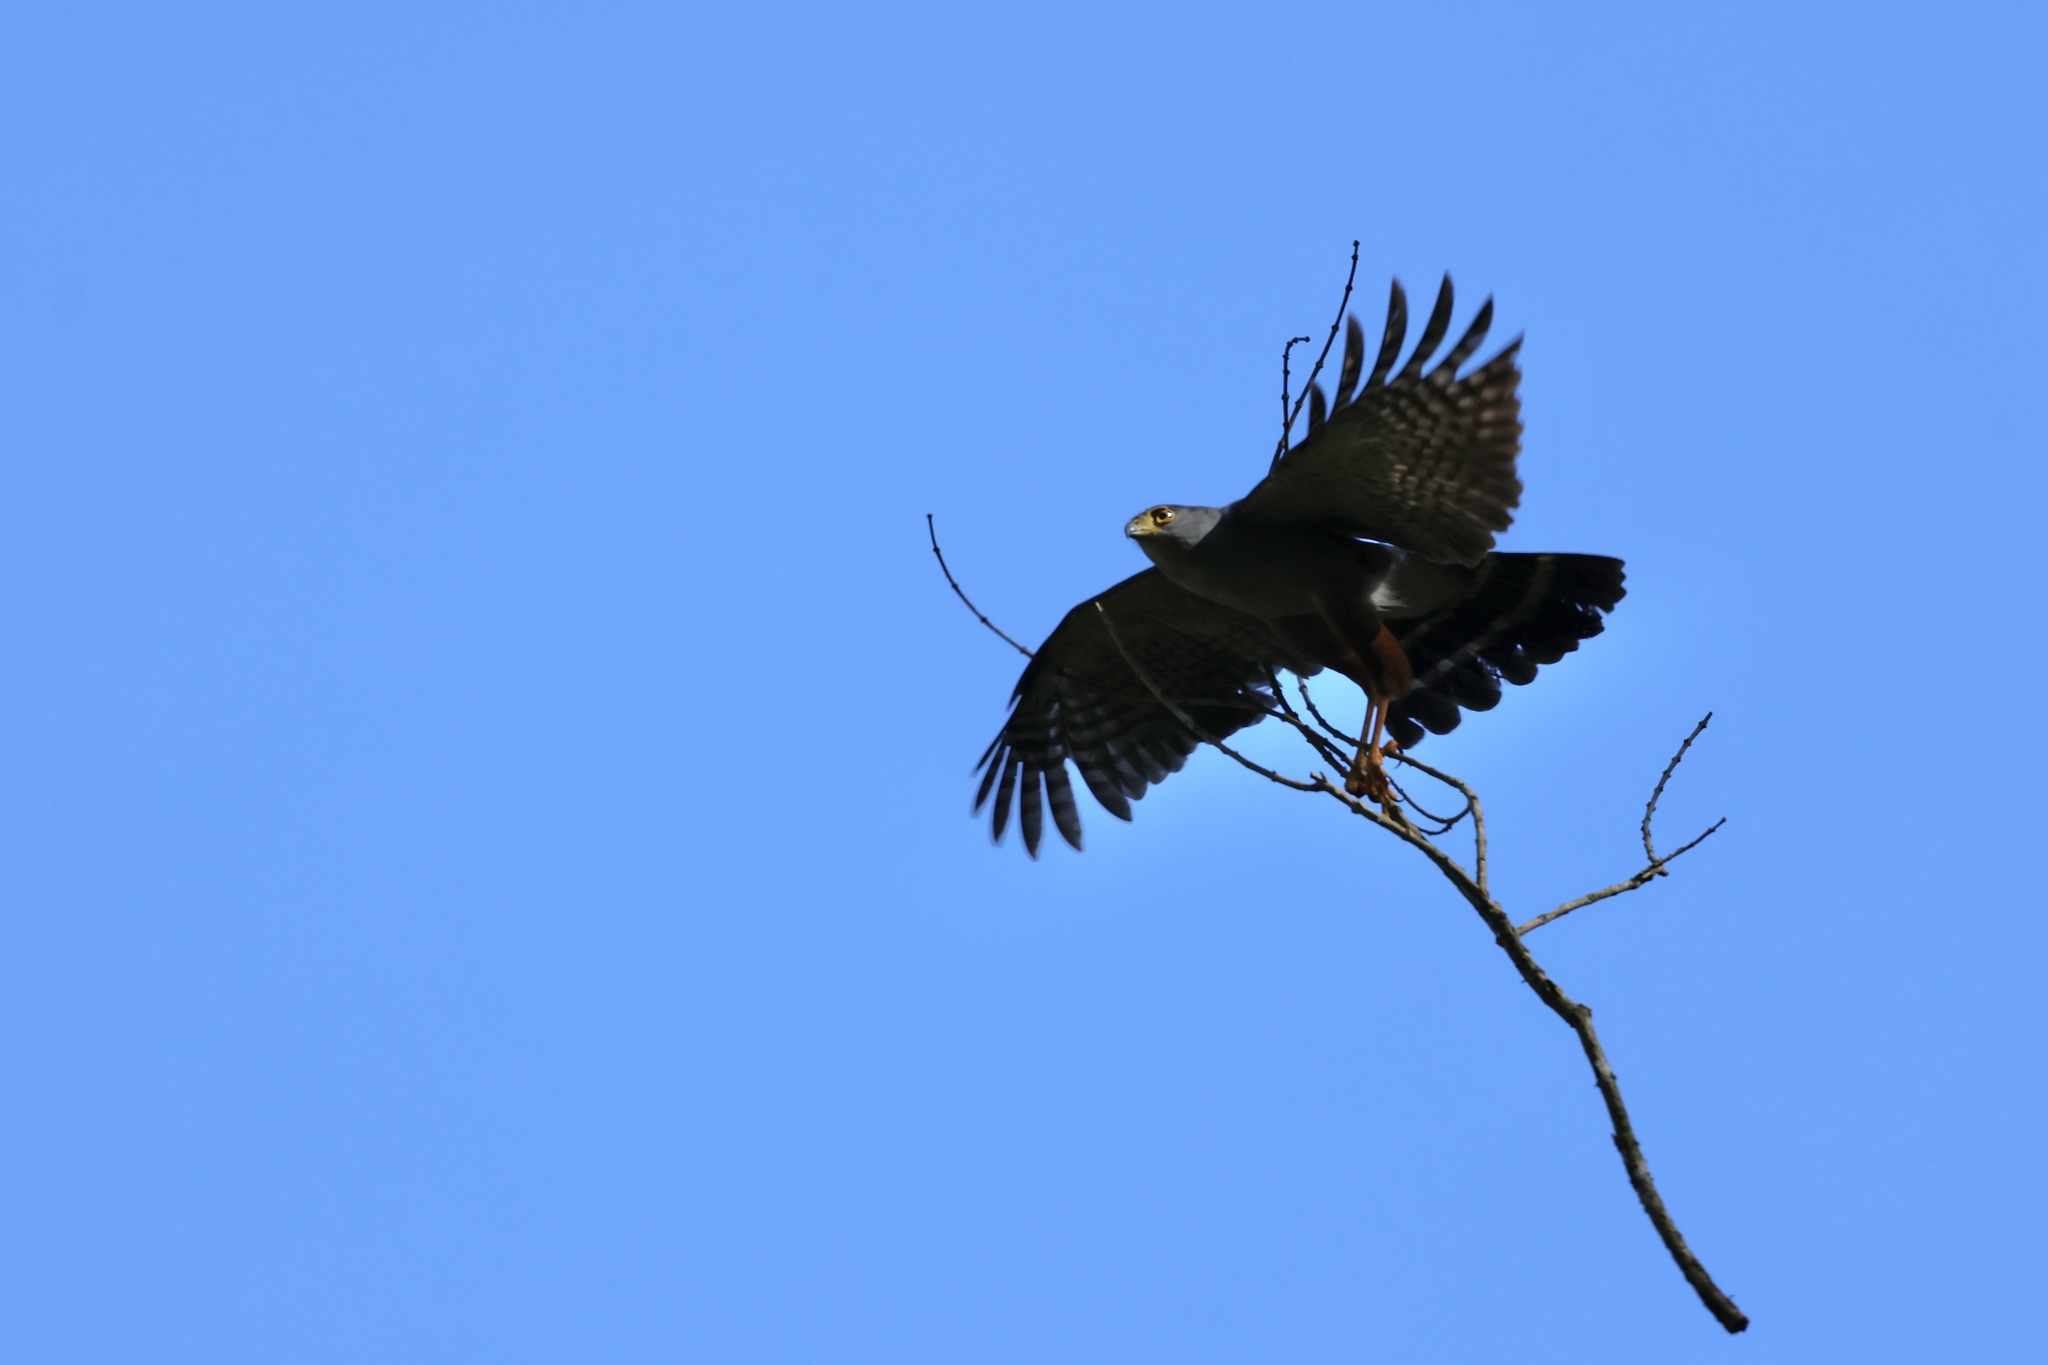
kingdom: Animalia
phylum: Chordata
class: Aves
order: Accipitriformes
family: Accipitridae
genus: Accipiter
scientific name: Accipiter bicolor
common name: Bicolored hawk
